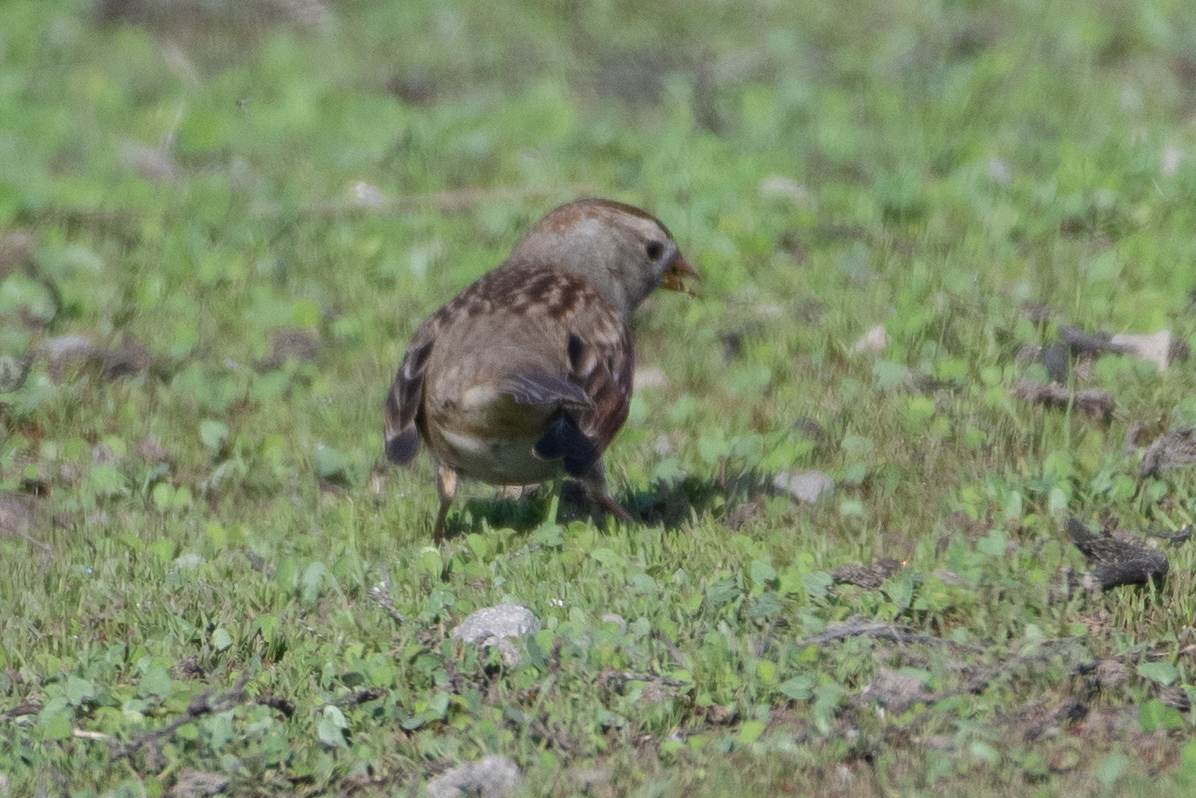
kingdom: Animalia
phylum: Chordata
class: Aves
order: Passeriformes
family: Passerellidae
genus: Zonotrichia
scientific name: Zonotrichia leucophrys
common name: White-crowned sparrow
